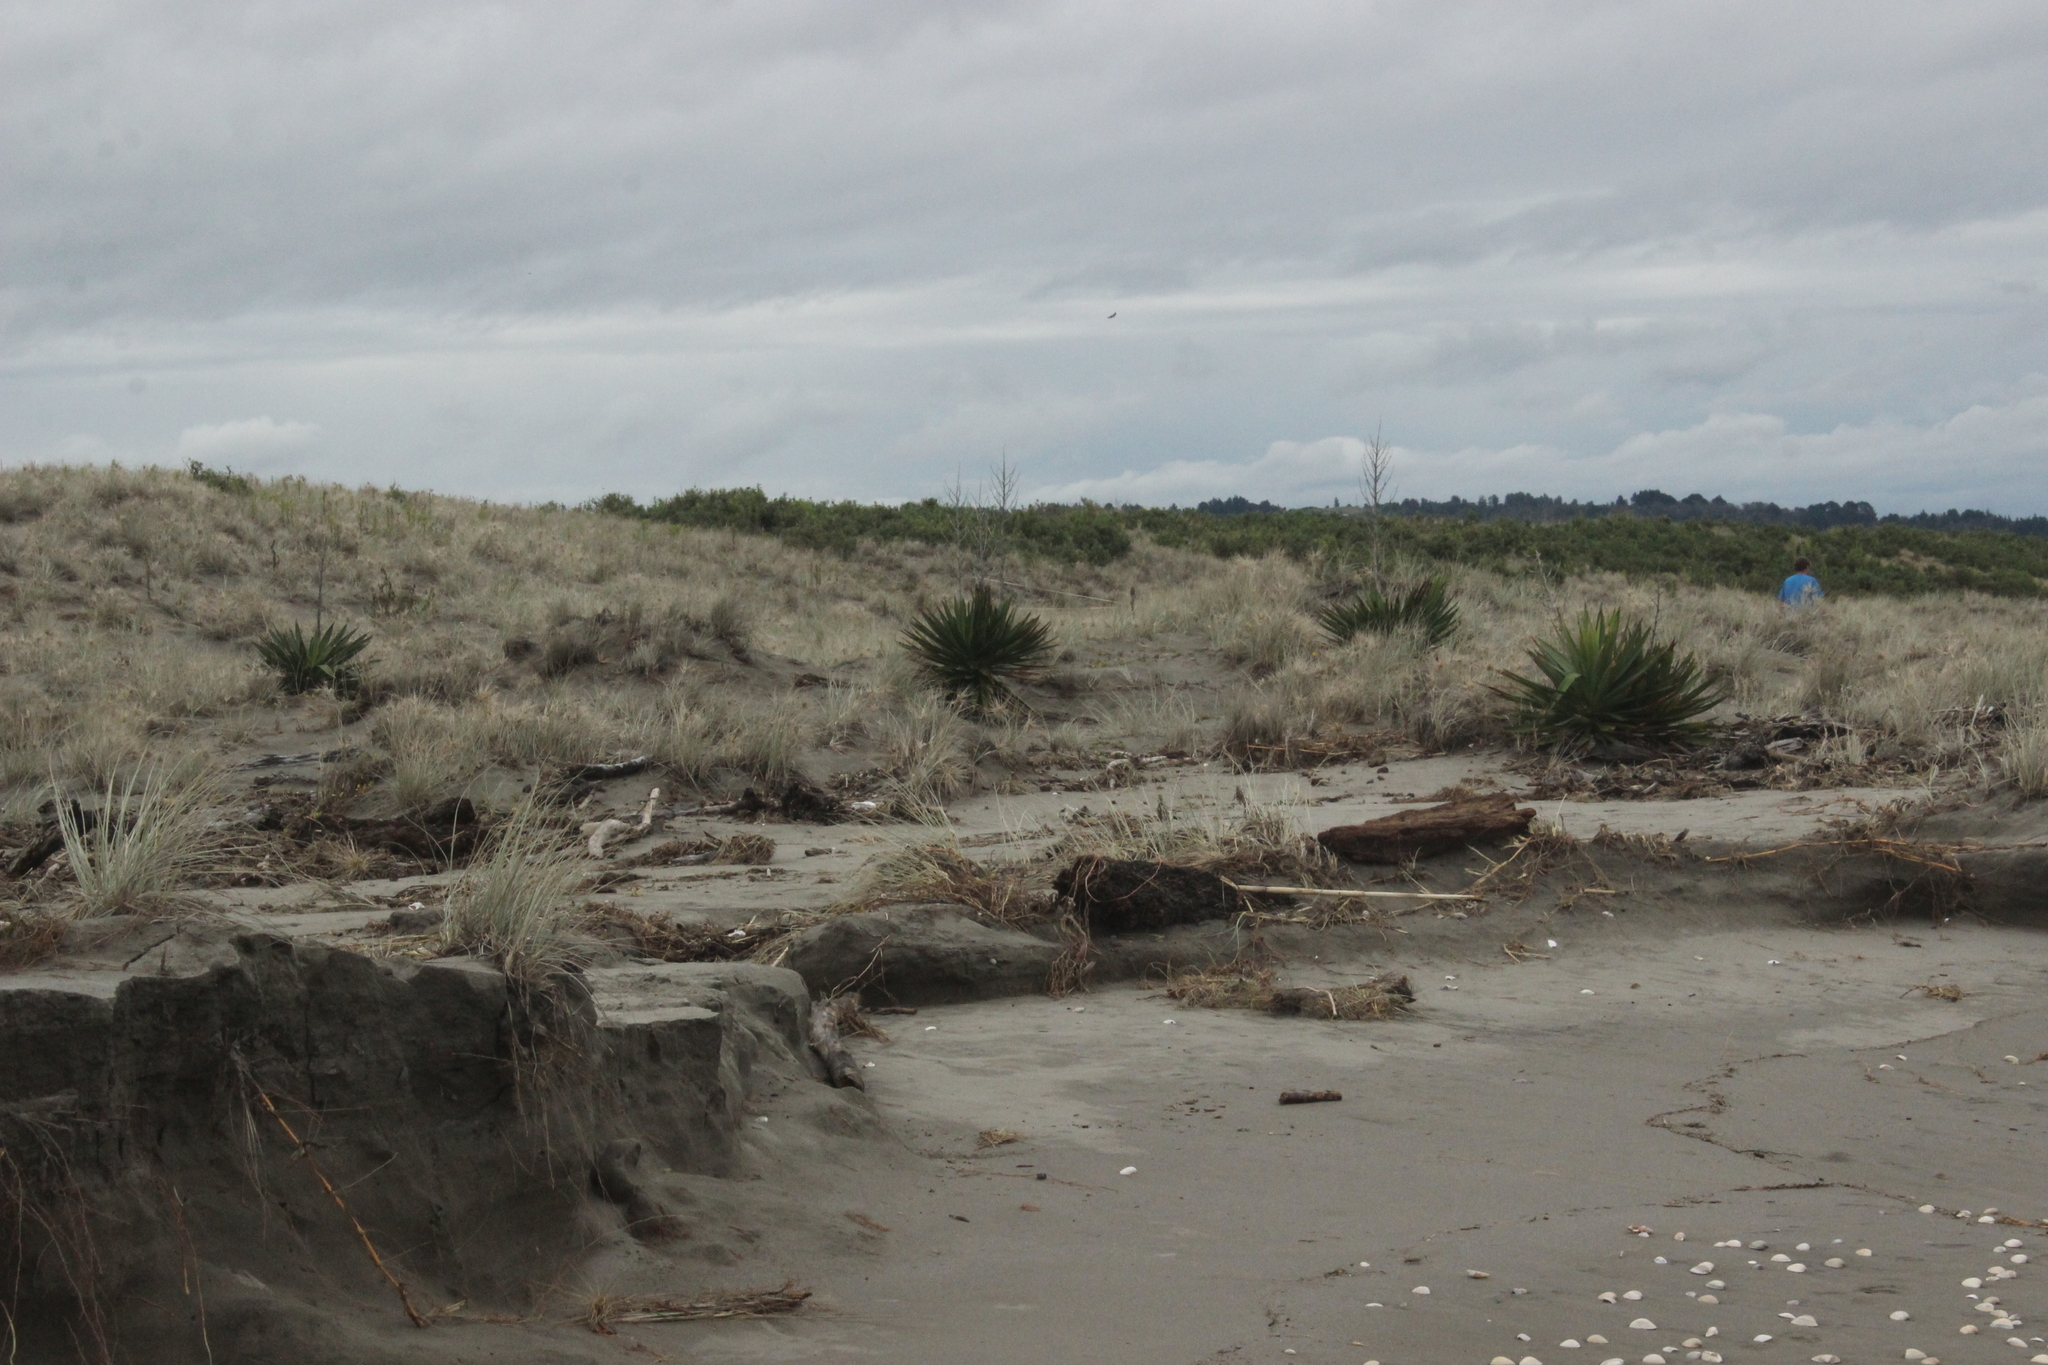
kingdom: Plantae
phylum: Tracheophyta
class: Liliopsida
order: Asparagales
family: Asparagaceae
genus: Yucca
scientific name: Yucca gloriosa
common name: Spanish-dagger
